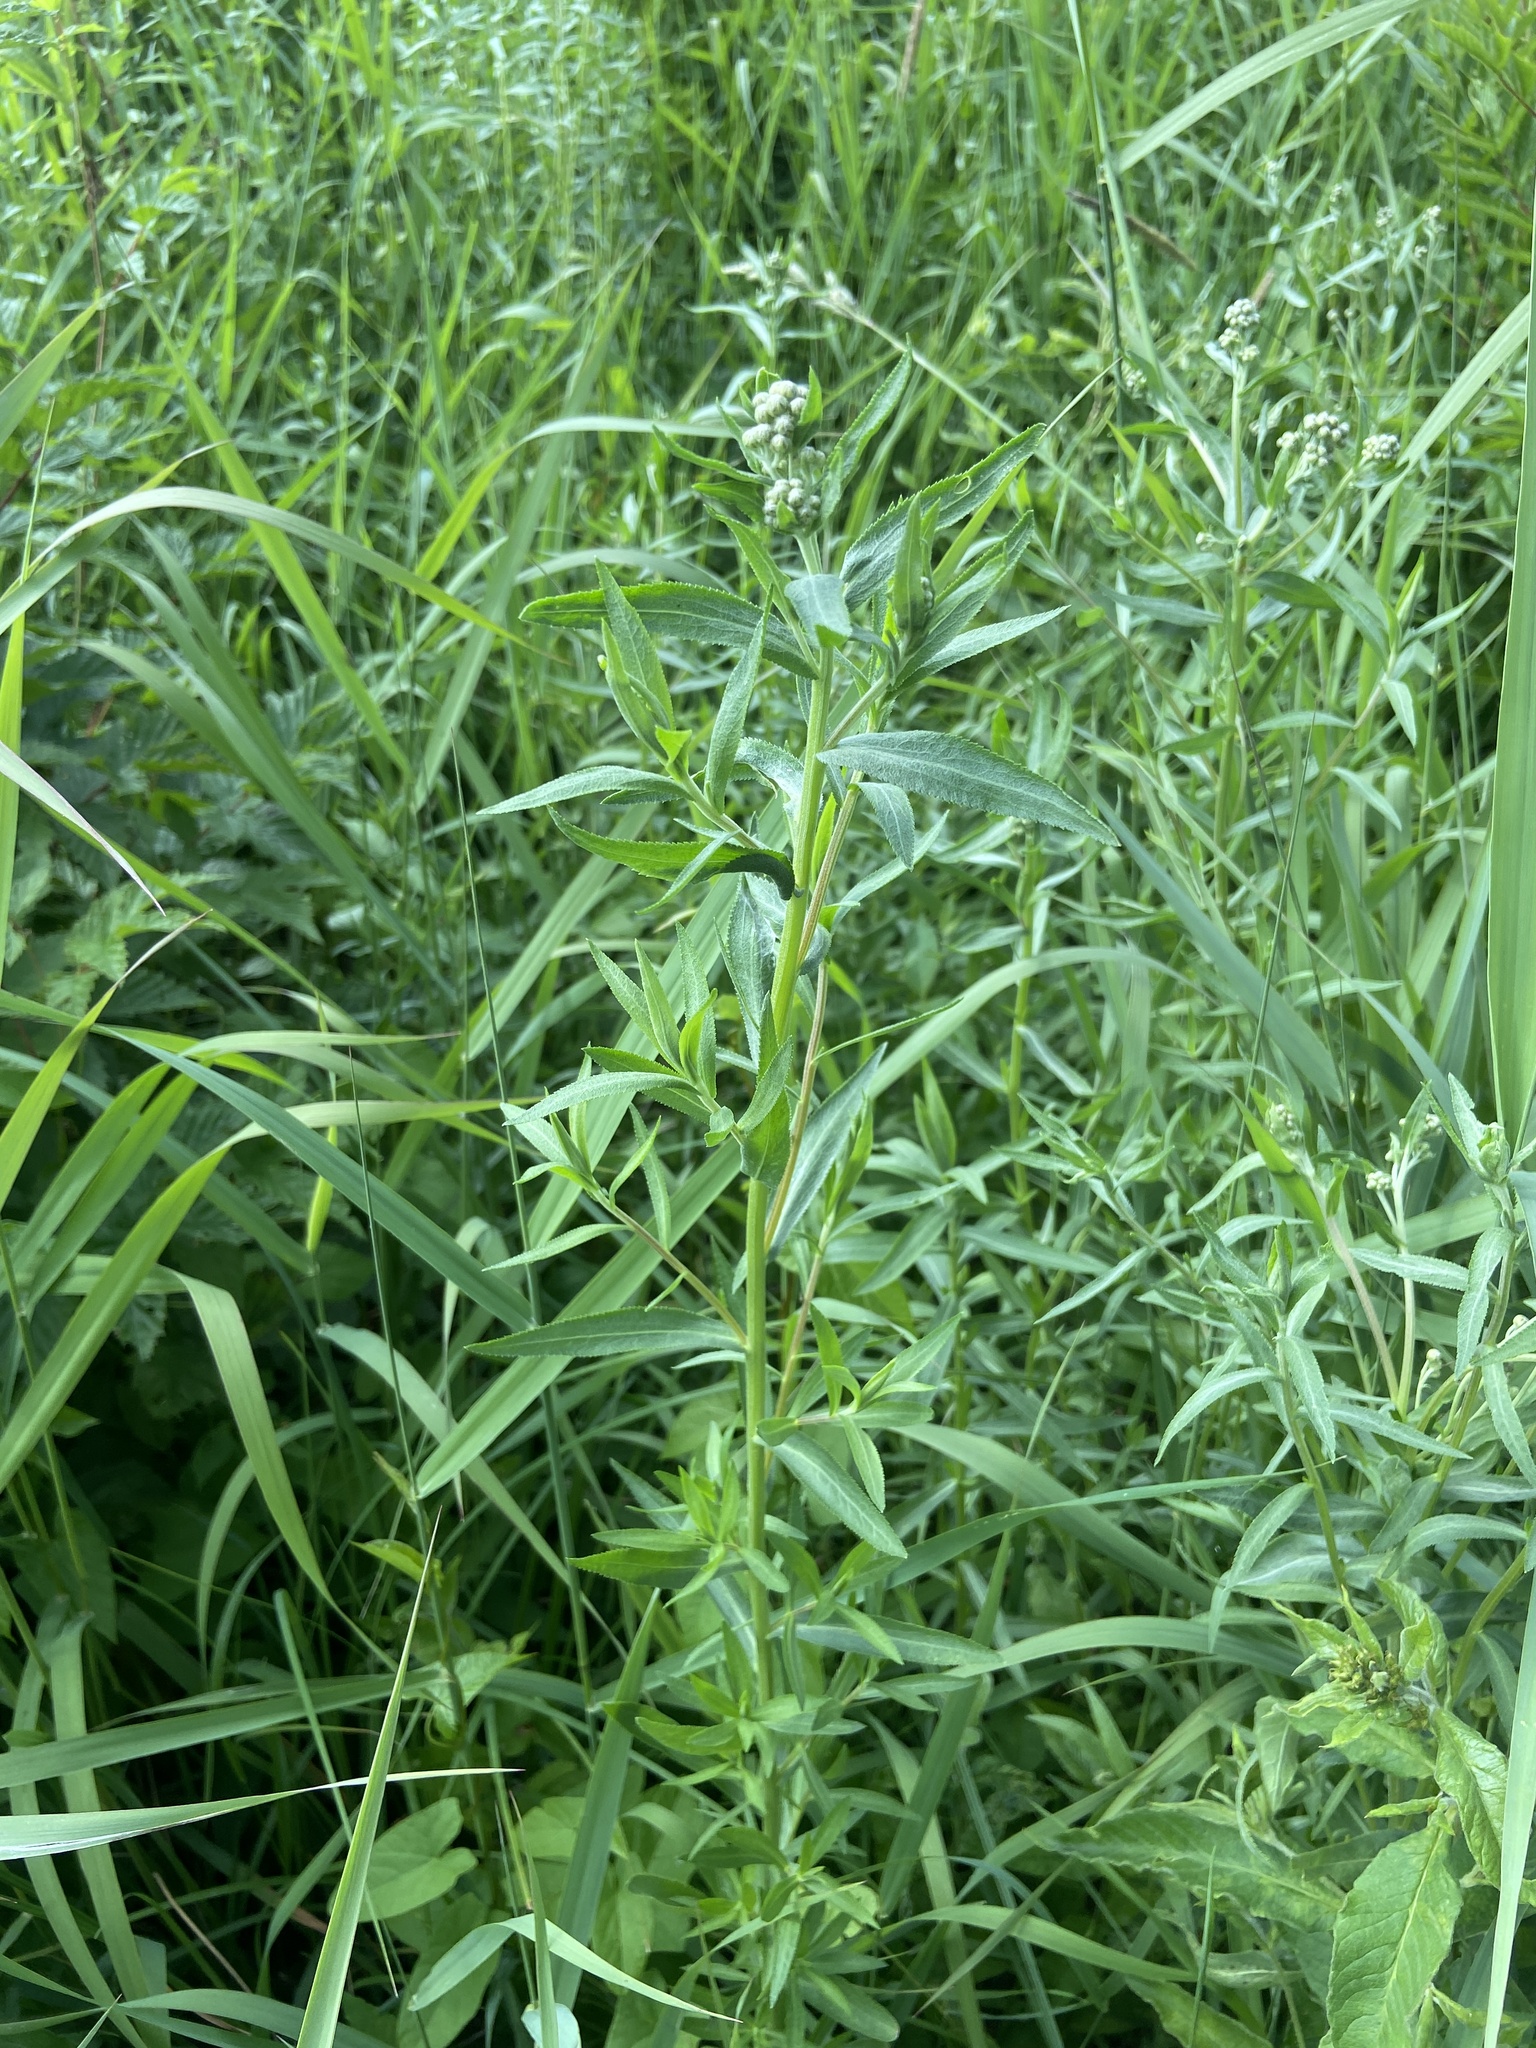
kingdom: Plantae
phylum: Tracheophyta
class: Magnoliopsida
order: Asterales
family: Asteraceae
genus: Achillea
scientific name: Achillea salicifolia
